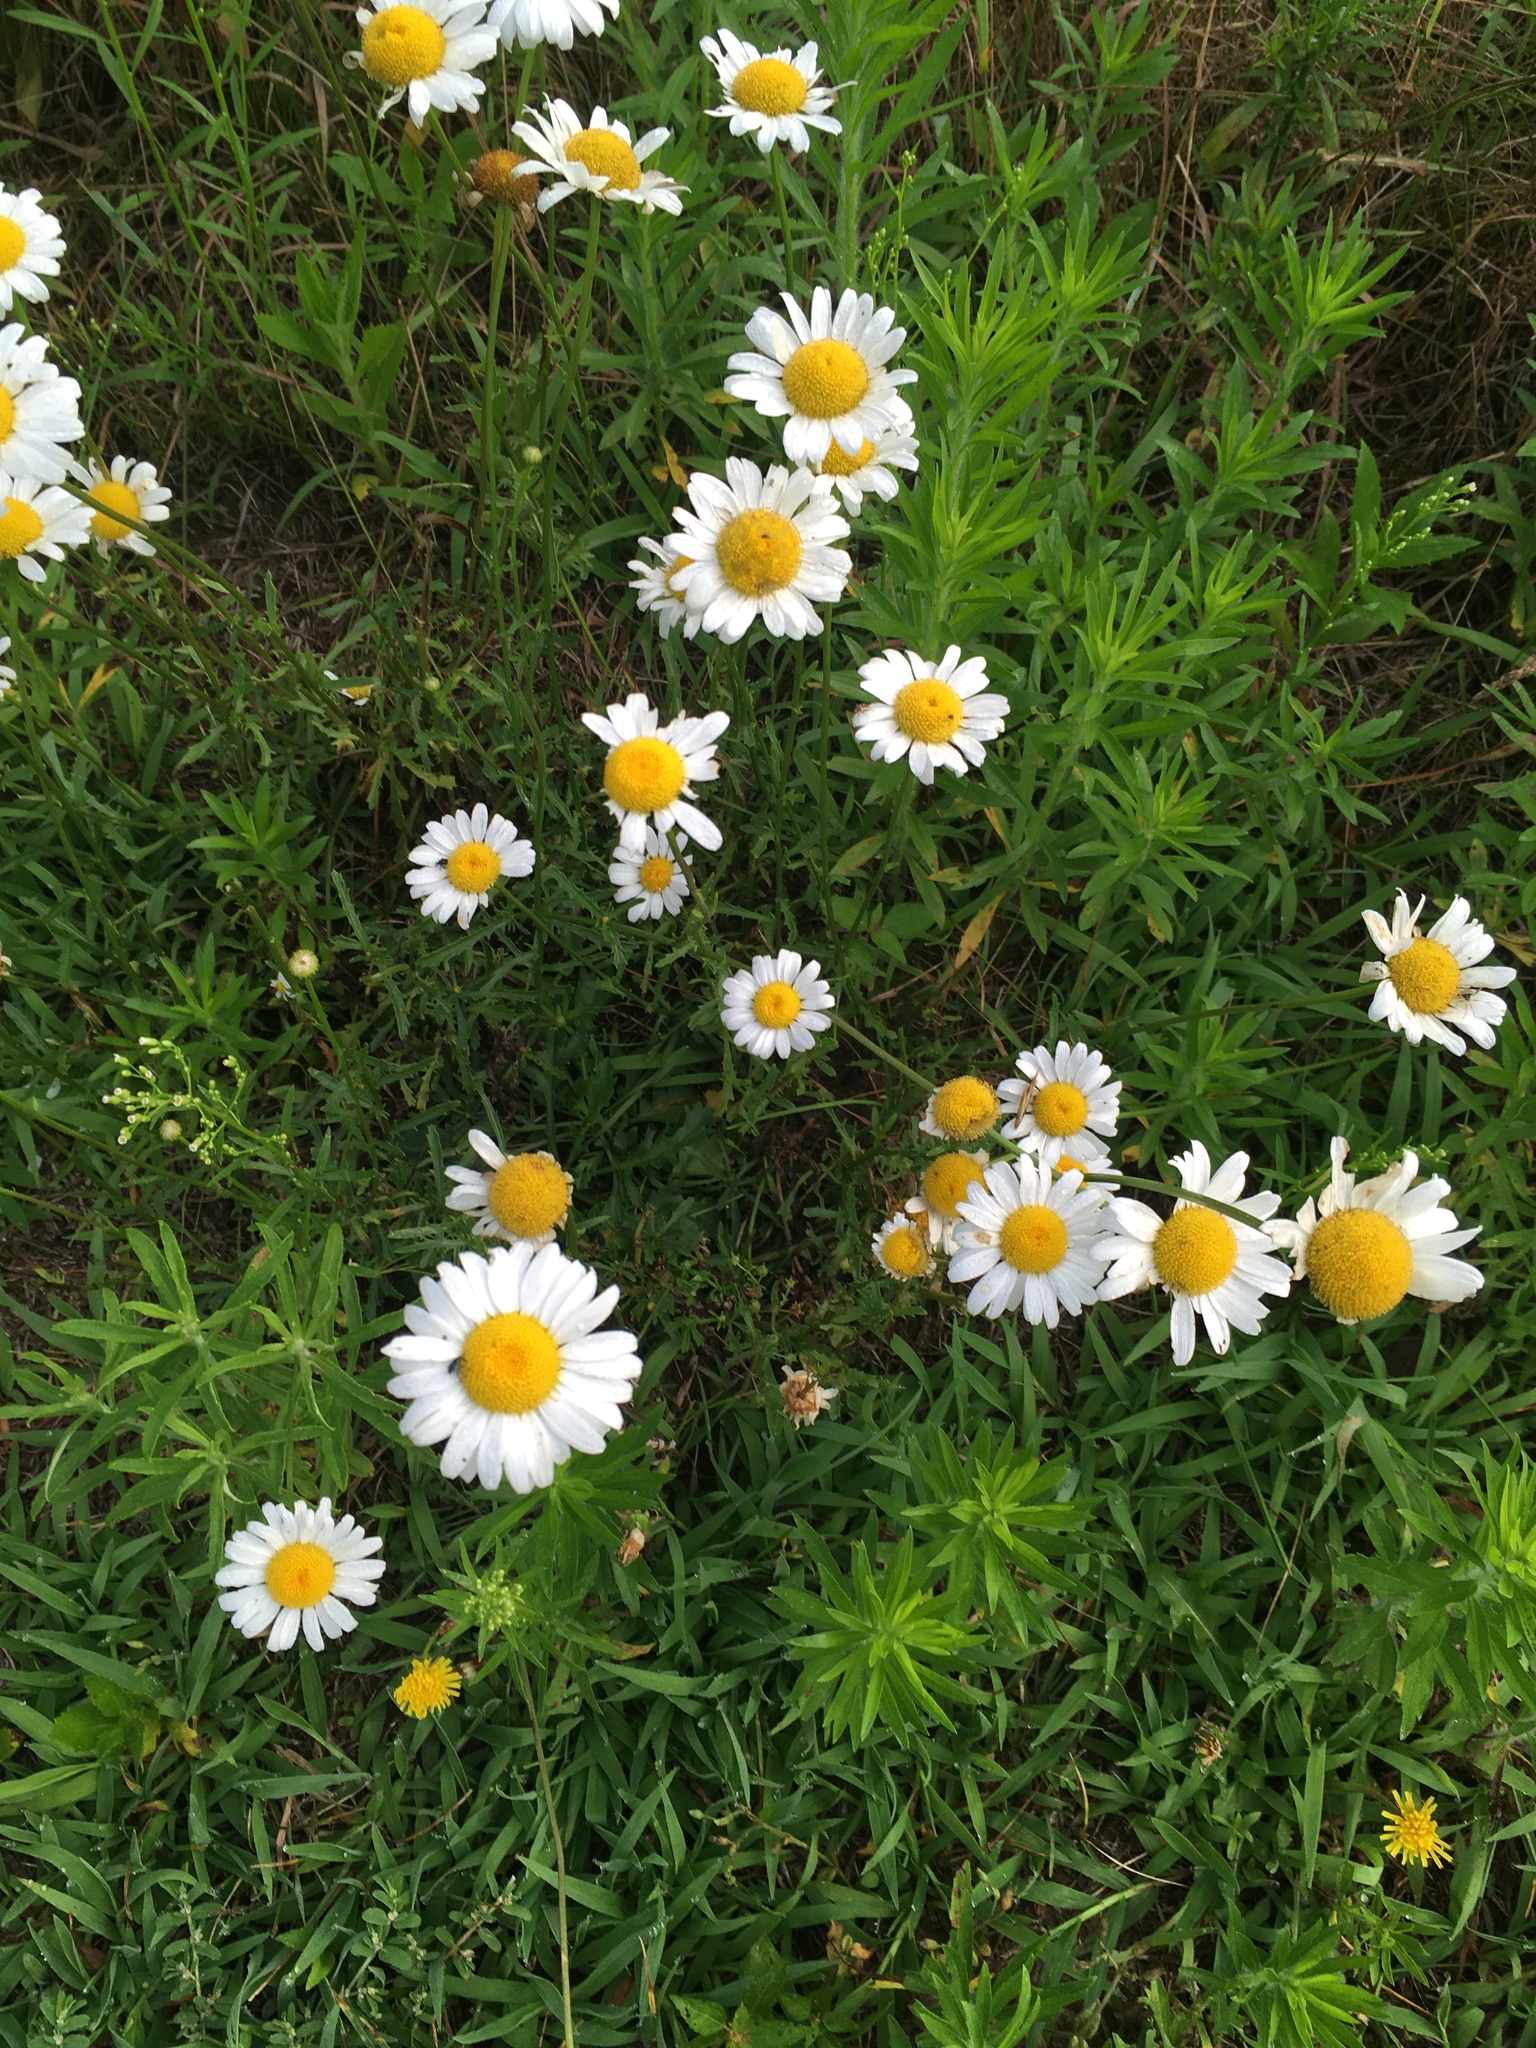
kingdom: Plantae
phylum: Tracheophyta
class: Magnoliopsida
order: Asterales
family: Asteraceae
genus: Leucanthemum
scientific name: Leucanthemum vulgare
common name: Oxeye daisy
